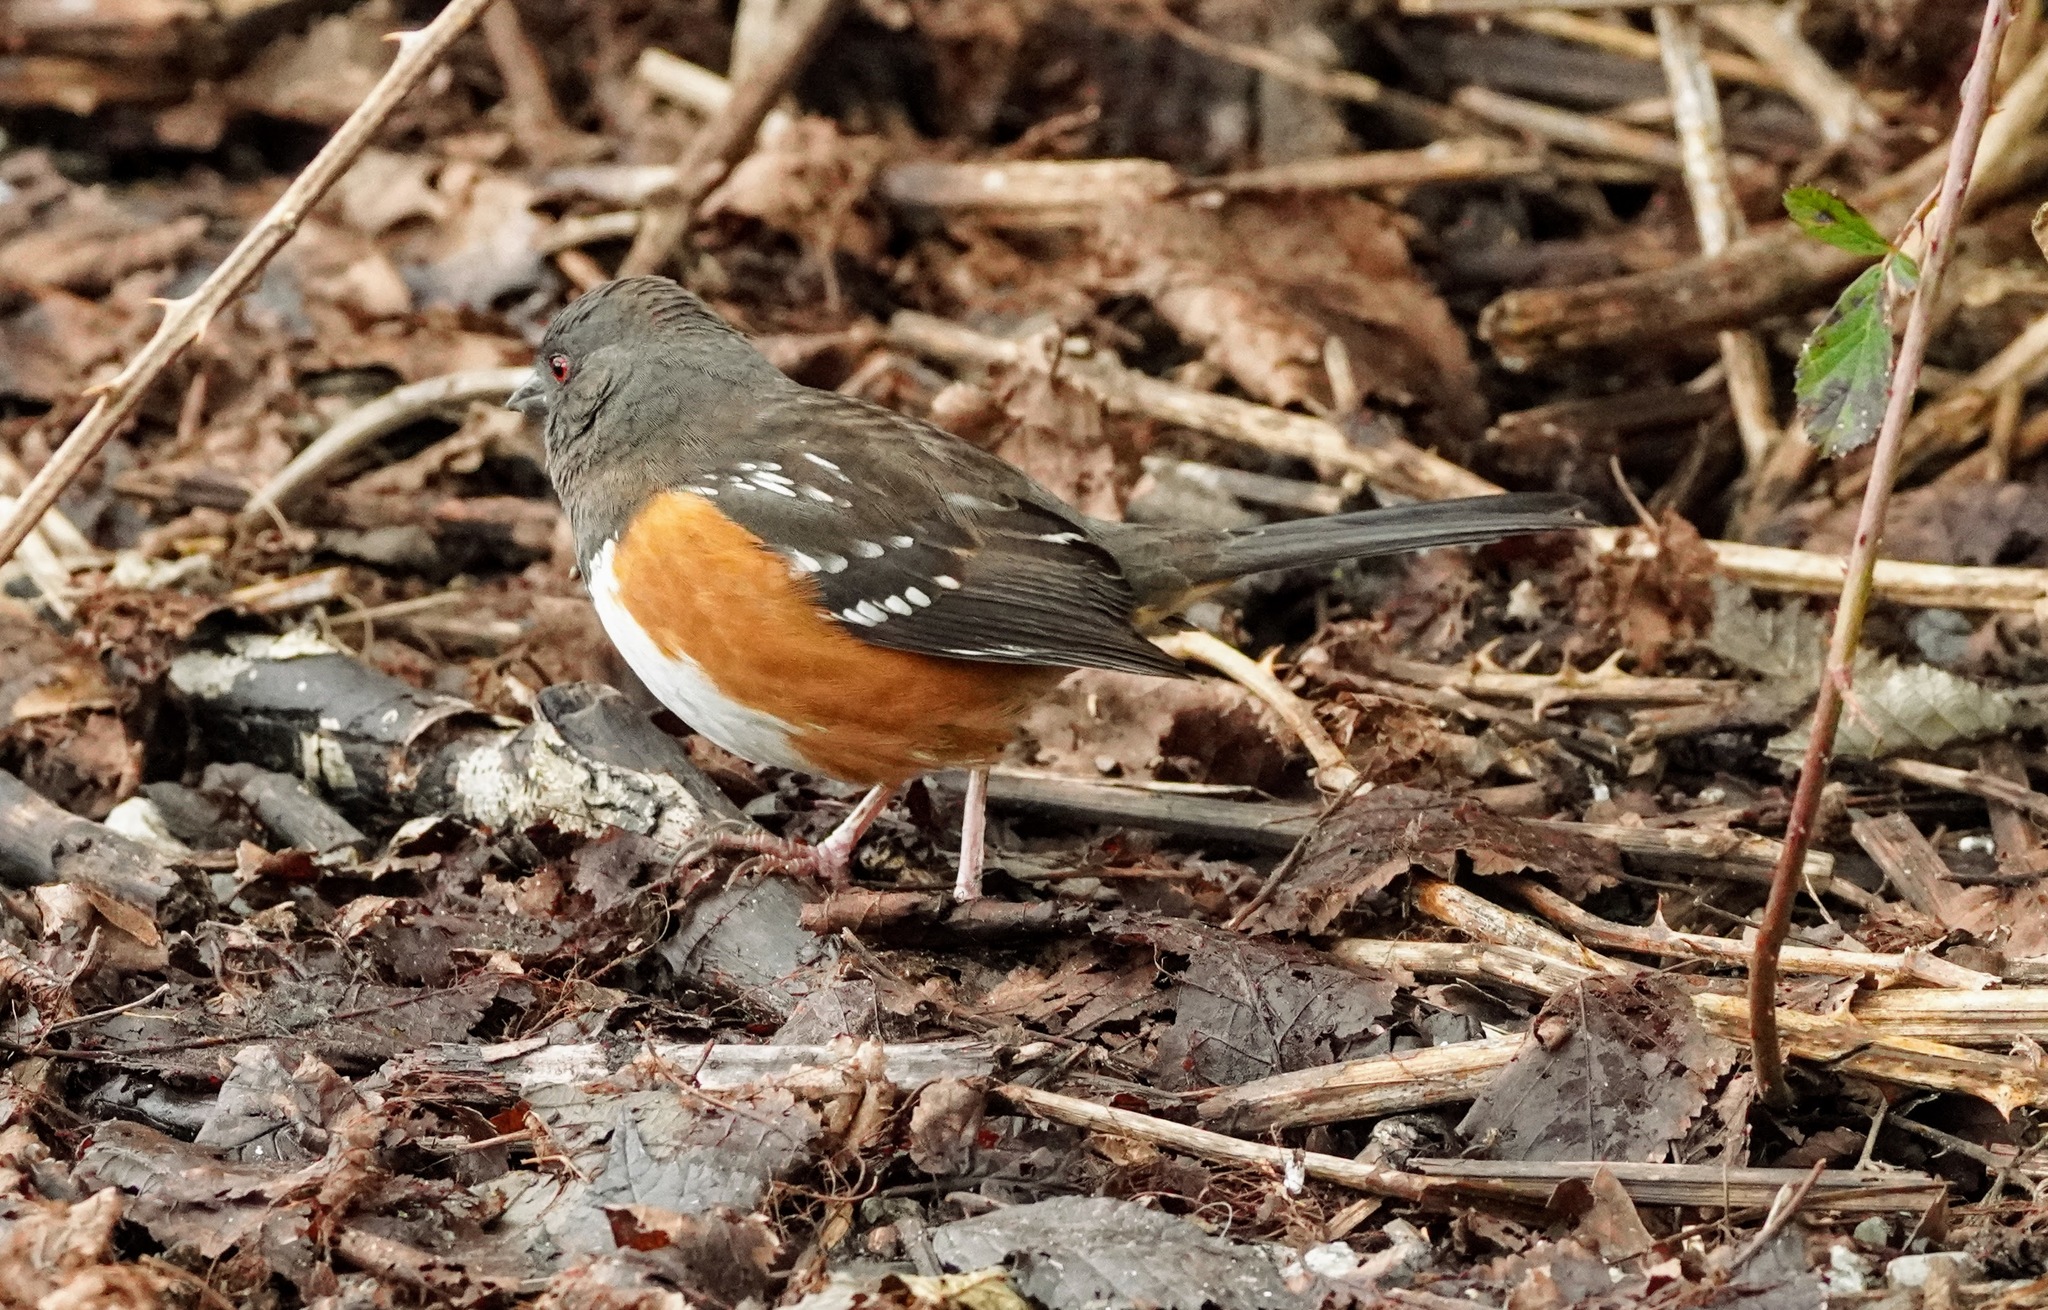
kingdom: Animalia
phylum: Chordata
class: Aves
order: Passeriformes
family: Passerellidae
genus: Pipilo
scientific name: Pipilo maculatus
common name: Spotted towhee
